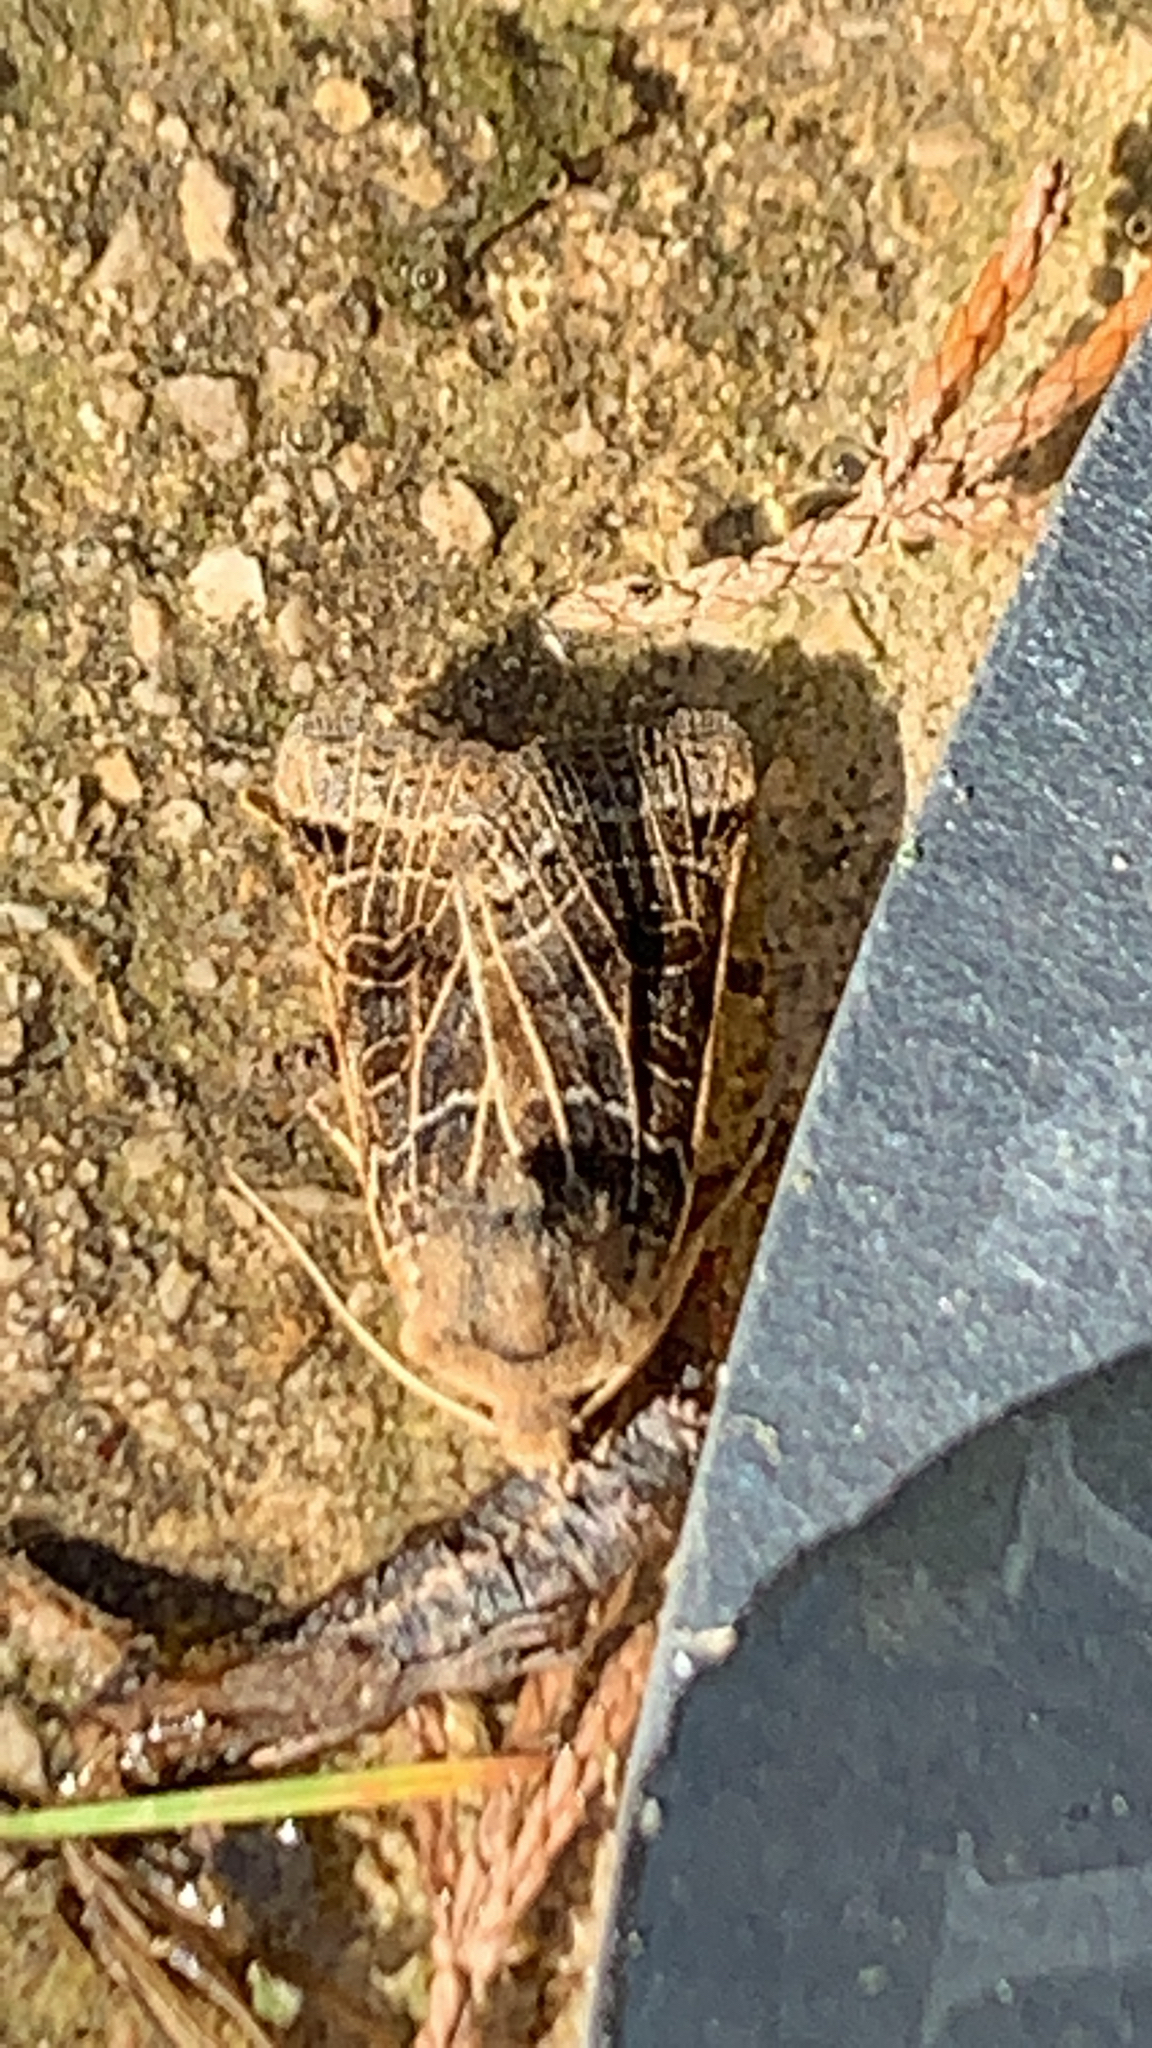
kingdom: Animalia
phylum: Arthropoda
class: Insecta
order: Lepidoptera
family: Noctuidae
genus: Agrochola
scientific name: Agrochola lunosa
